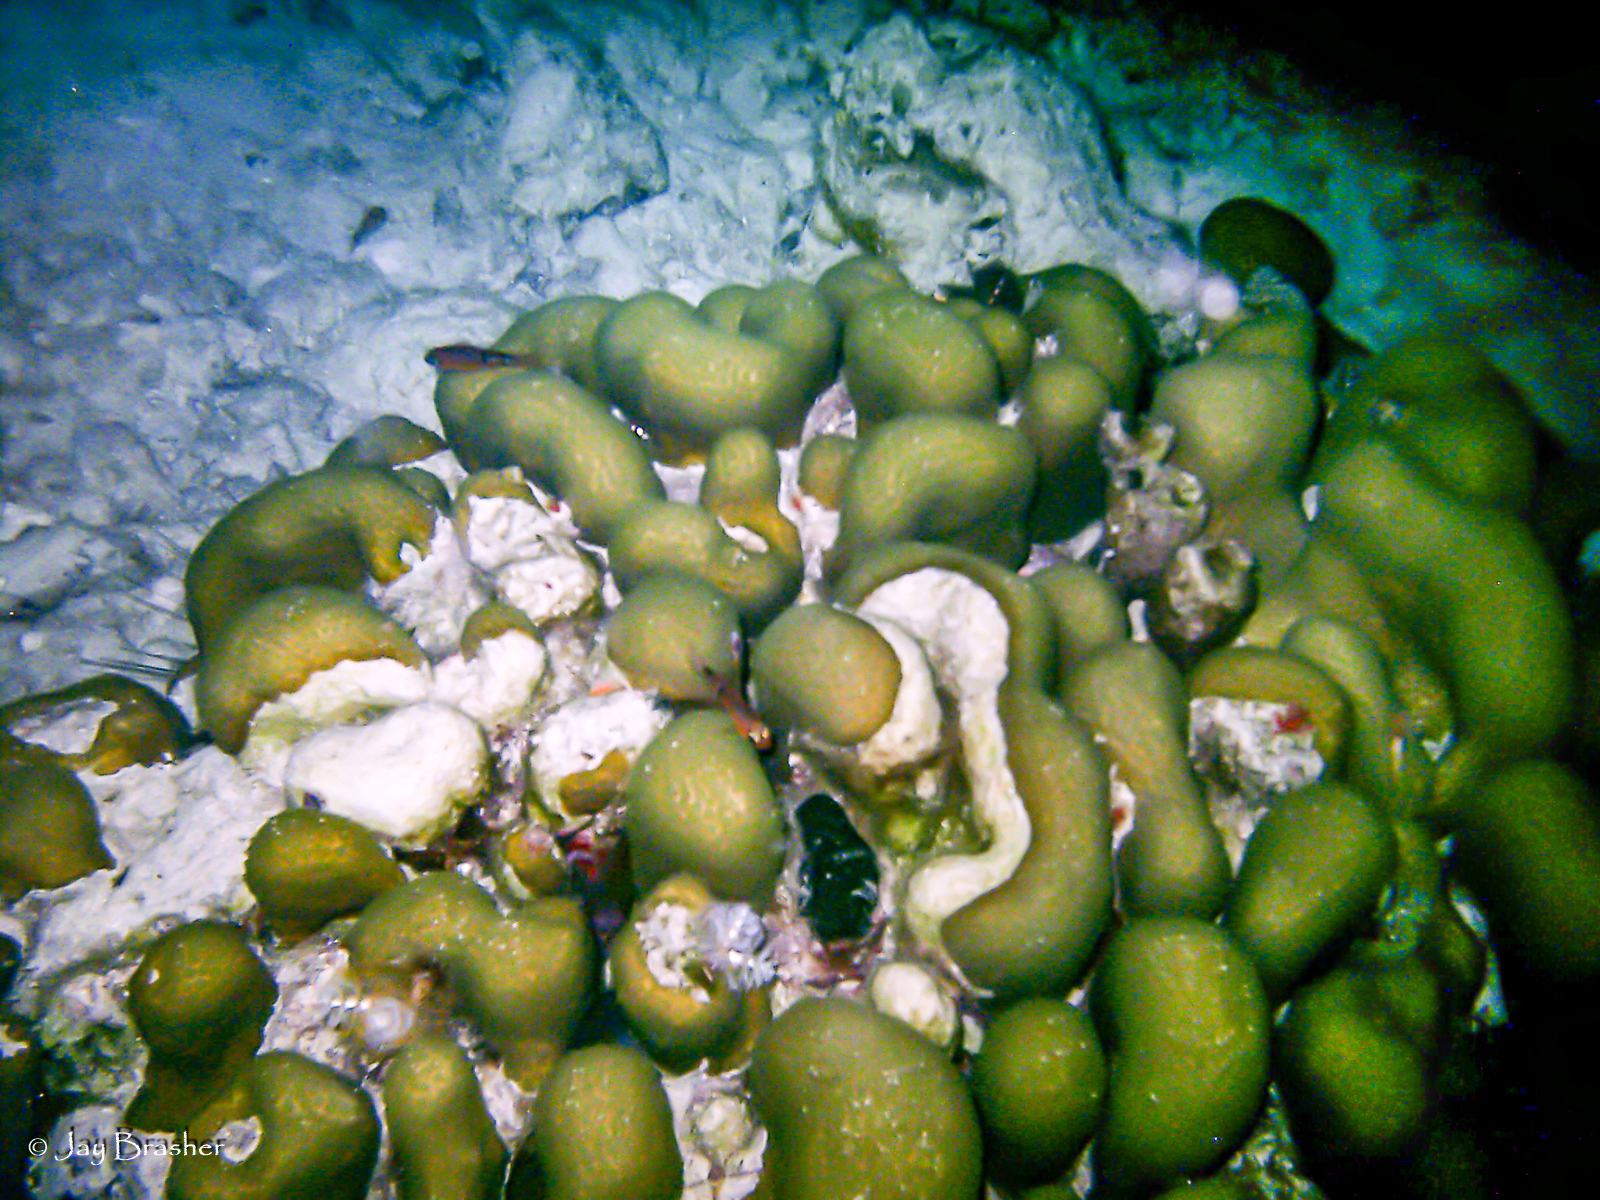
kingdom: Animalia
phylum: Cnidaria
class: Anthozoa
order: Scleractinia
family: Merulinidae
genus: Orbicella
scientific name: Orbicella annularis
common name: Boulder star coral
